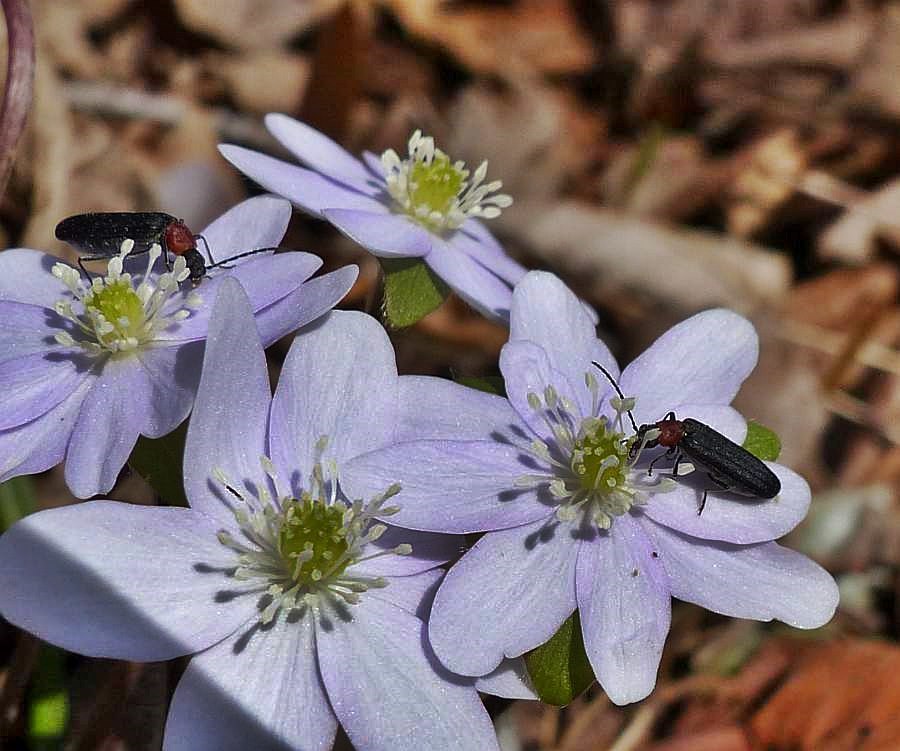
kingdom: Animalia
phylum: Arthropoda
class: Insecta
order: Coleoptera
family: Oedemeridae
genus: Ischnomera
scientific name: Ischnomera
